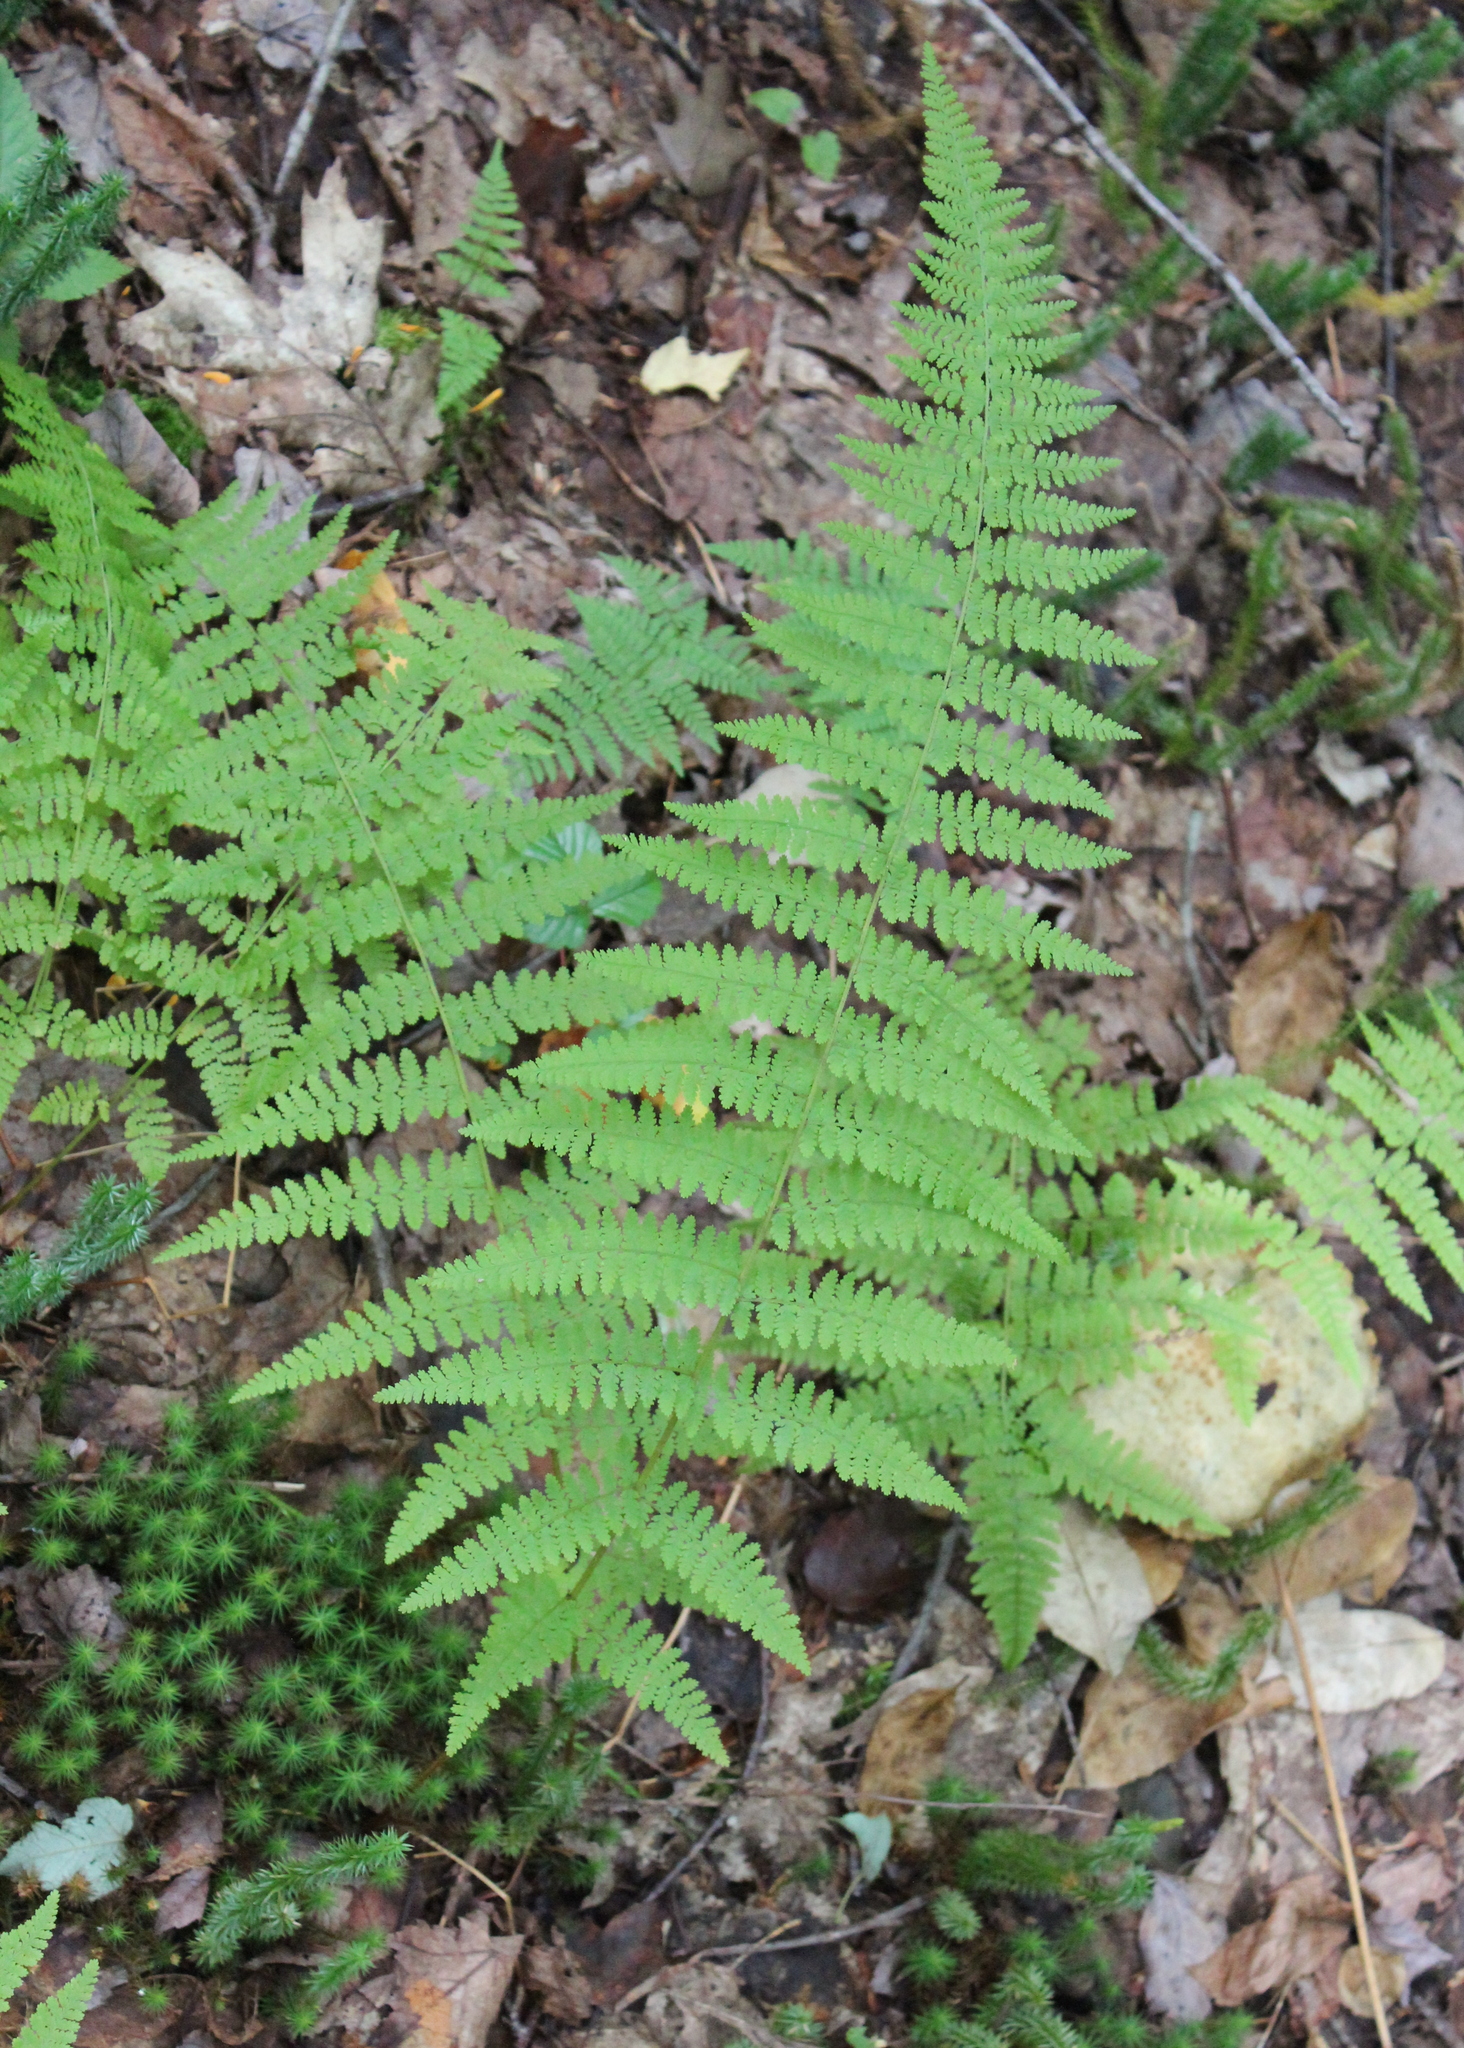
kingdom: Plantae
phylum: Tracheophyta
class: Polypodiopsida
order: Polypodiales
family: Dennstaedtiaceae
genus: Sitobolium
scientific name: Sitobolium punctilobum
